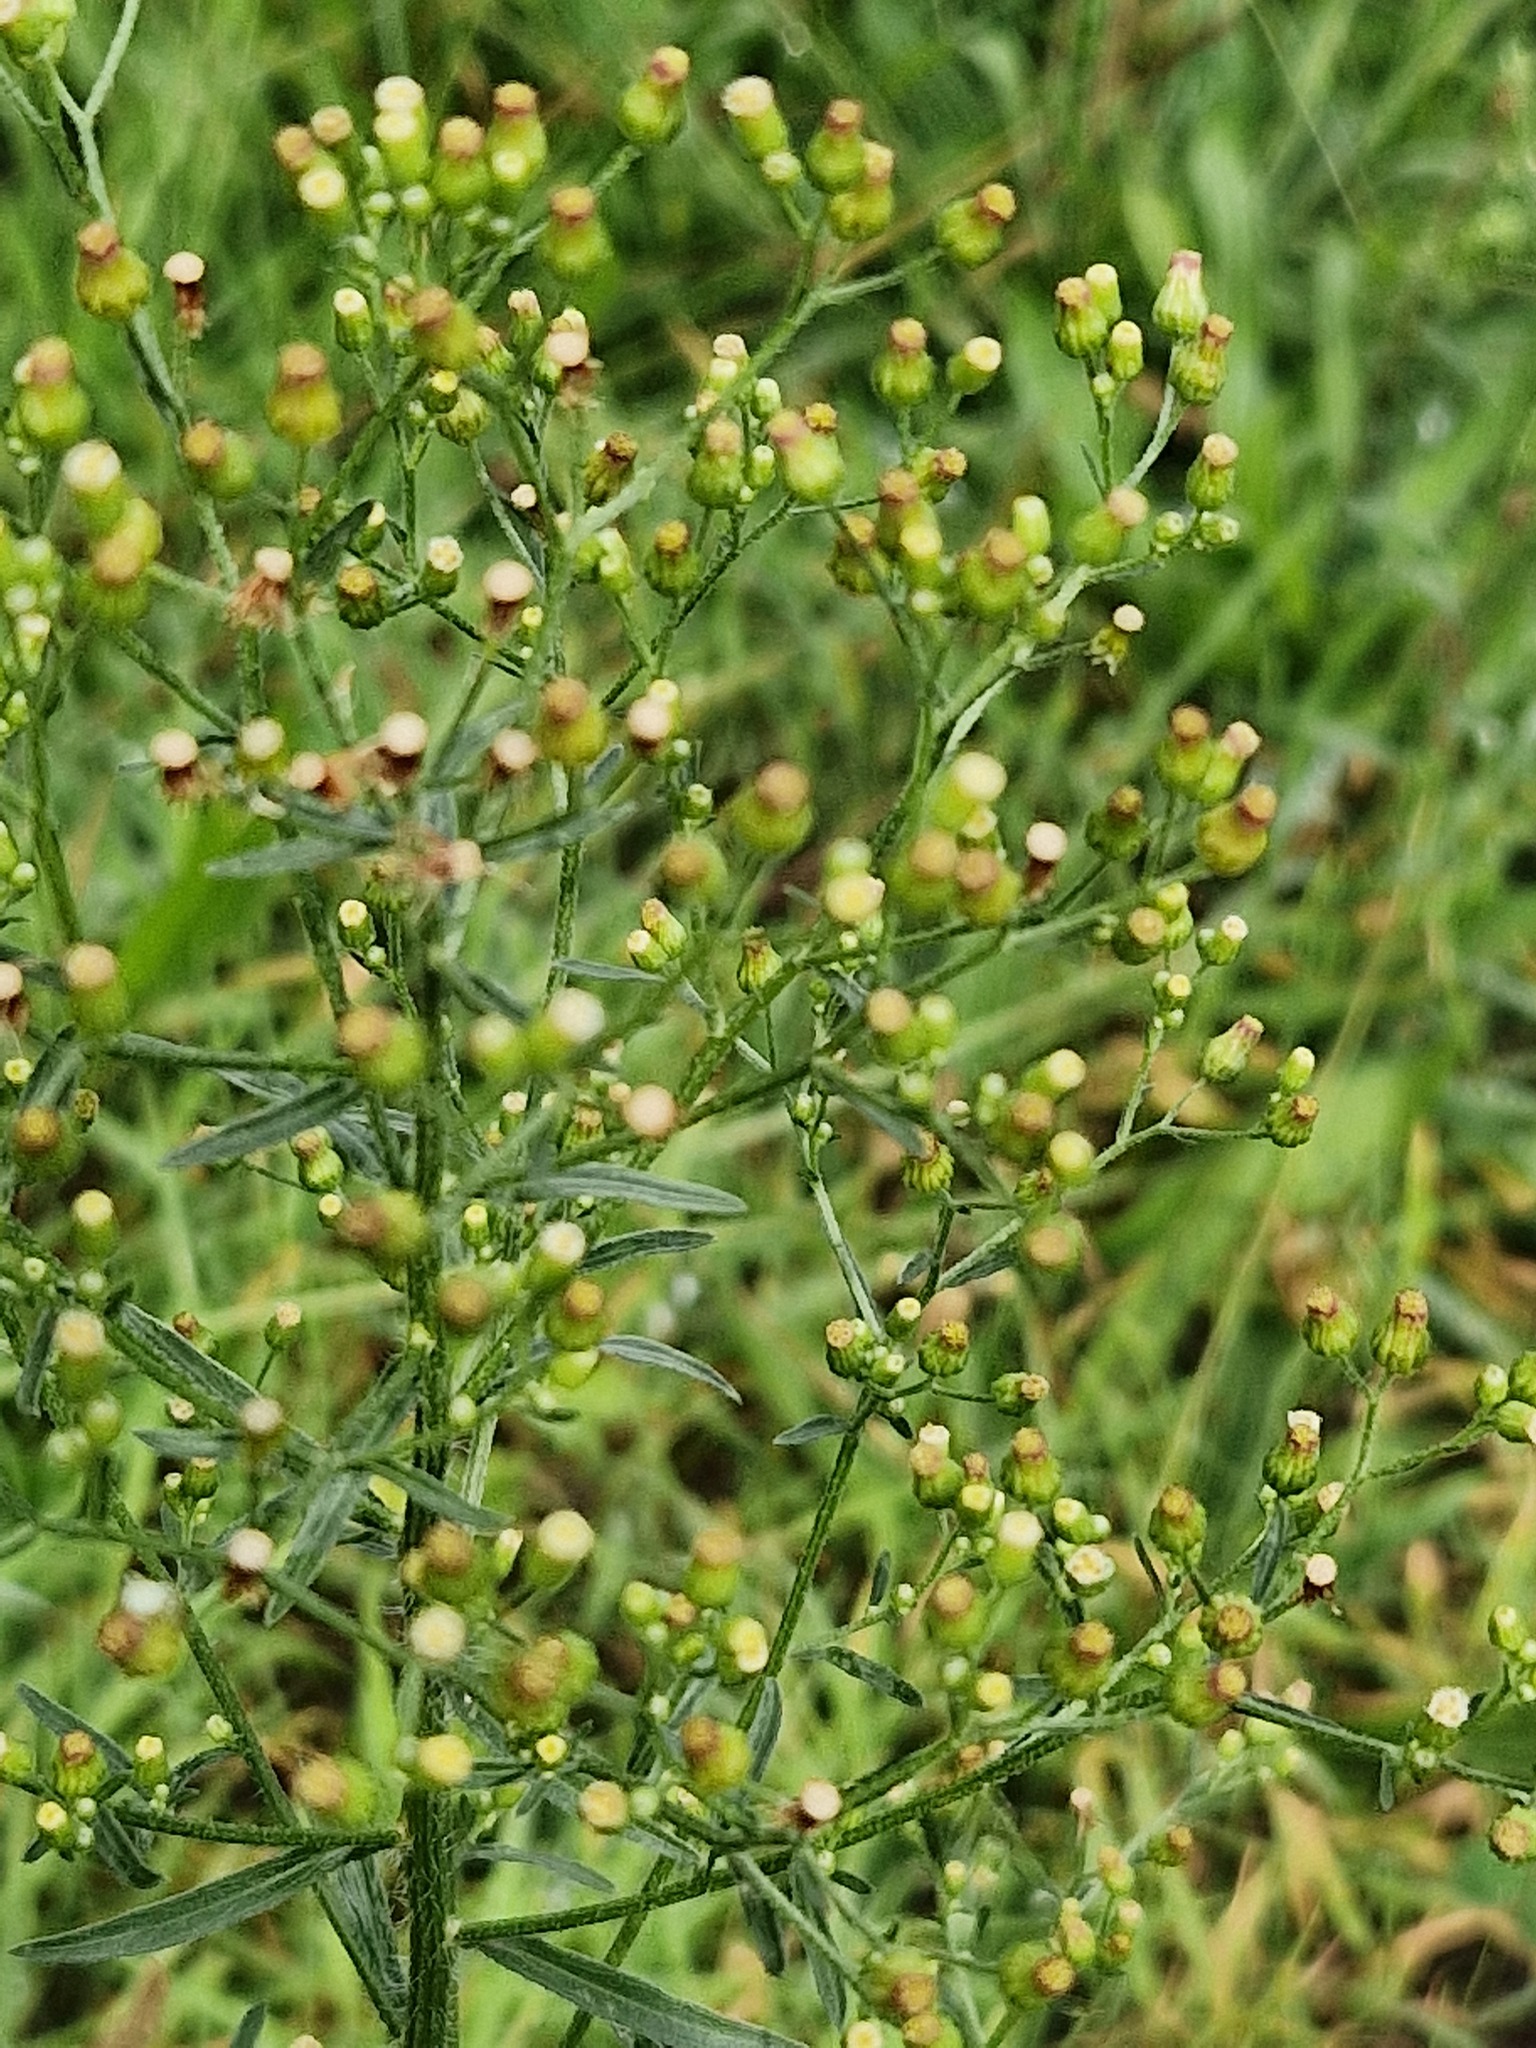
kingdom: Plantae
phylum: Tracheophyta
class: Magnoliopsida
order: Asterales
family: Asteraceae
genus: Erigeron
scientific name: Erigeron floribundus
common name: Bilbao fleabane
